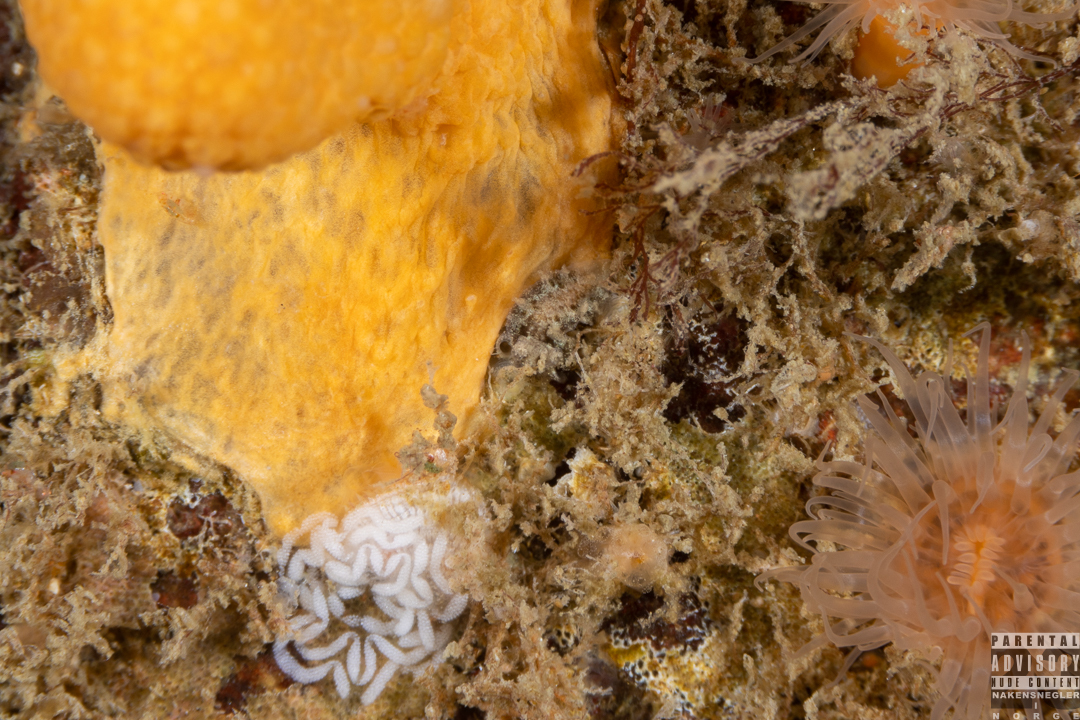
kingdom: Animalia
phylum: Mollusca
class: Gastropoda
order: Nudibranchia
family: Tritoniidae
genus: Duvaucelia
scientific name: Duvaucelia plebeia
